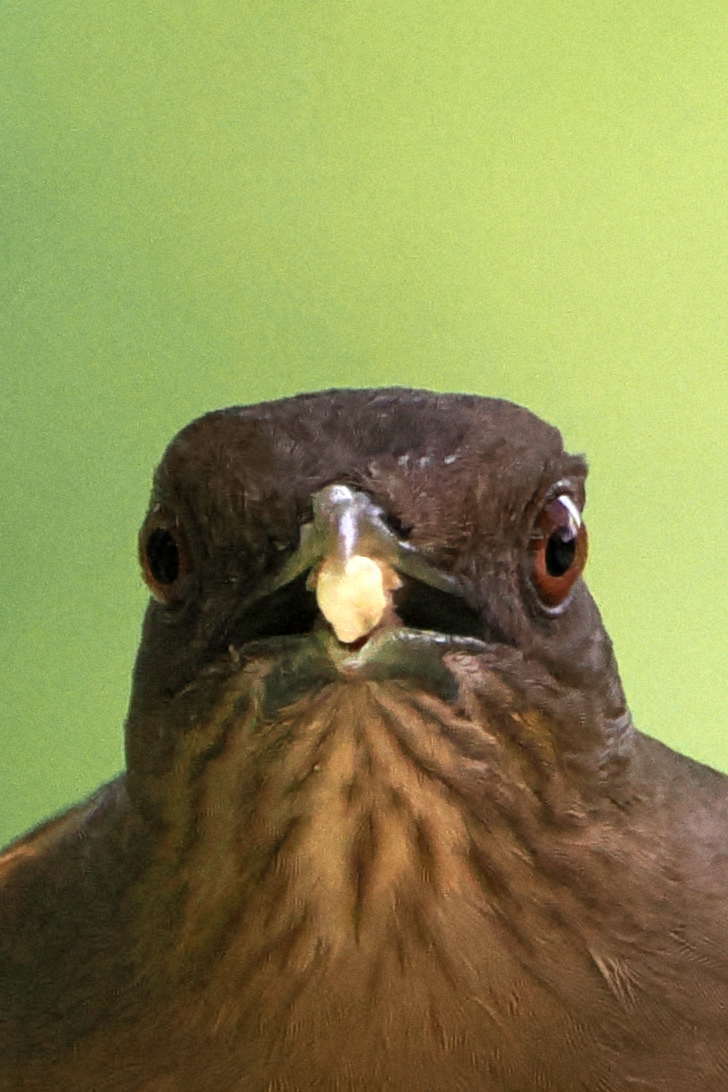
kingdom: Animalia
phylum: Chordata
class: Aves
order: Passeriformes
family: Turdidae
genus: Turdus
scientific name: Turdus grayi
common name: Clay-colored thrush
